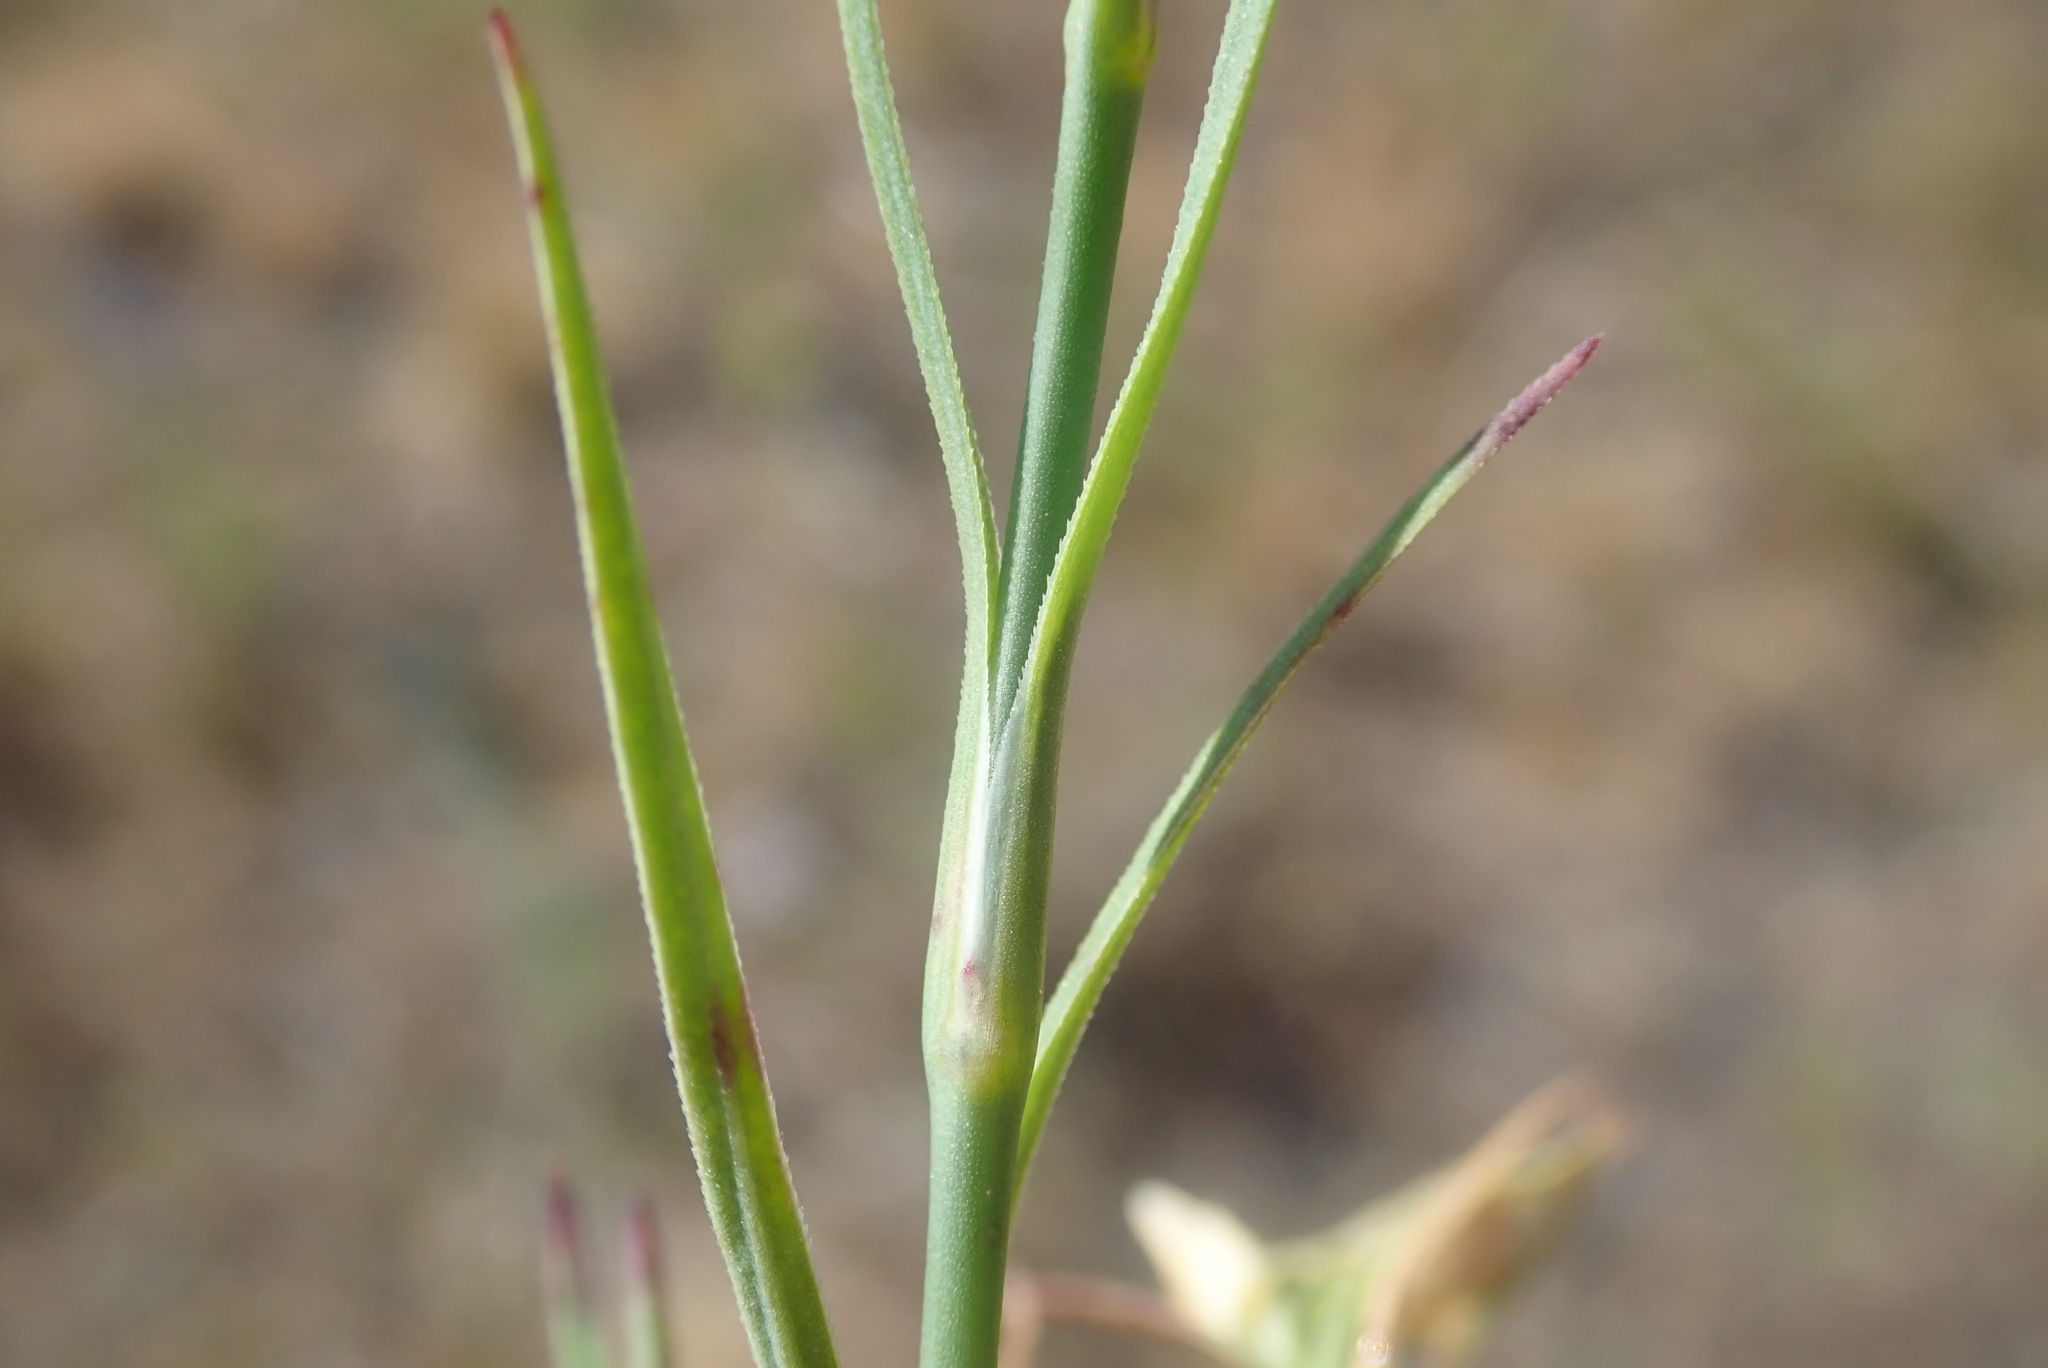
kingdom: Plantae
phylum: Tracheophyta
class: Magnoliopsida
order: Caryophyllales
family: Caryophyllaceae
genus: Petrorhagia
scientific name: Petrorhagia prolifera
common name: Proliferous pink
